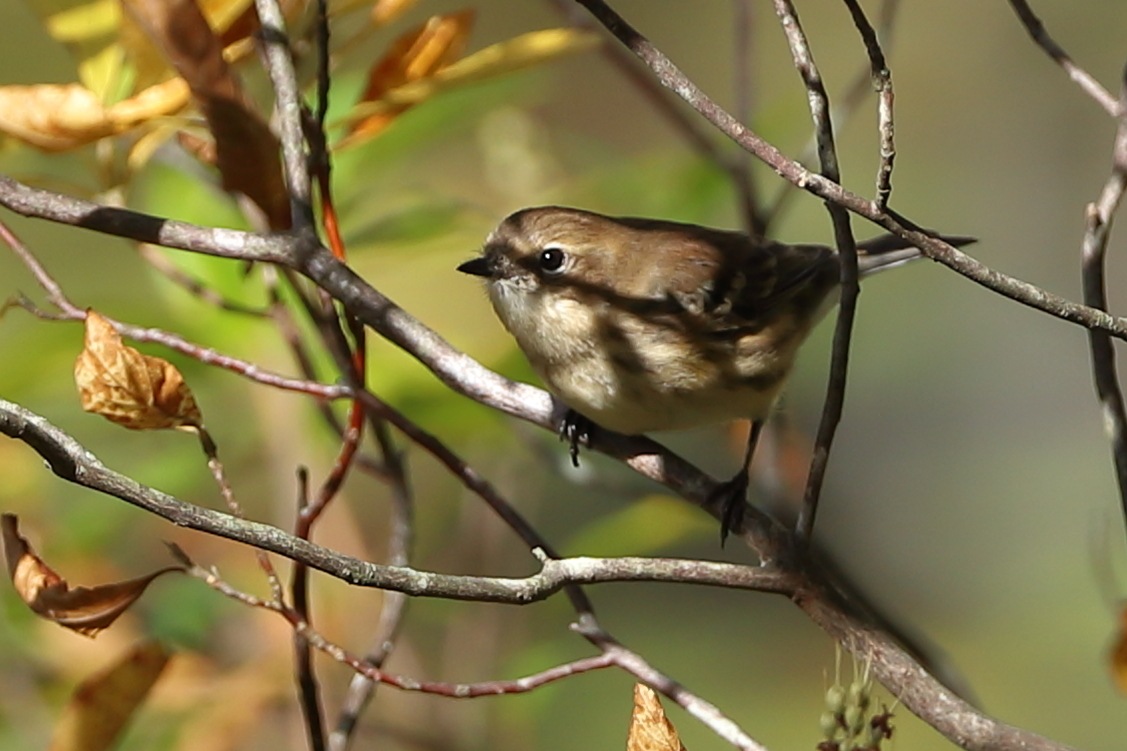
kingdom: Animalia
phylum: Chordata
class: Aves
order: Passeriformes
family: Parulidae
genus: Setophaga
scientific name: Setophaga coronata
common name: Myrtle warbler
